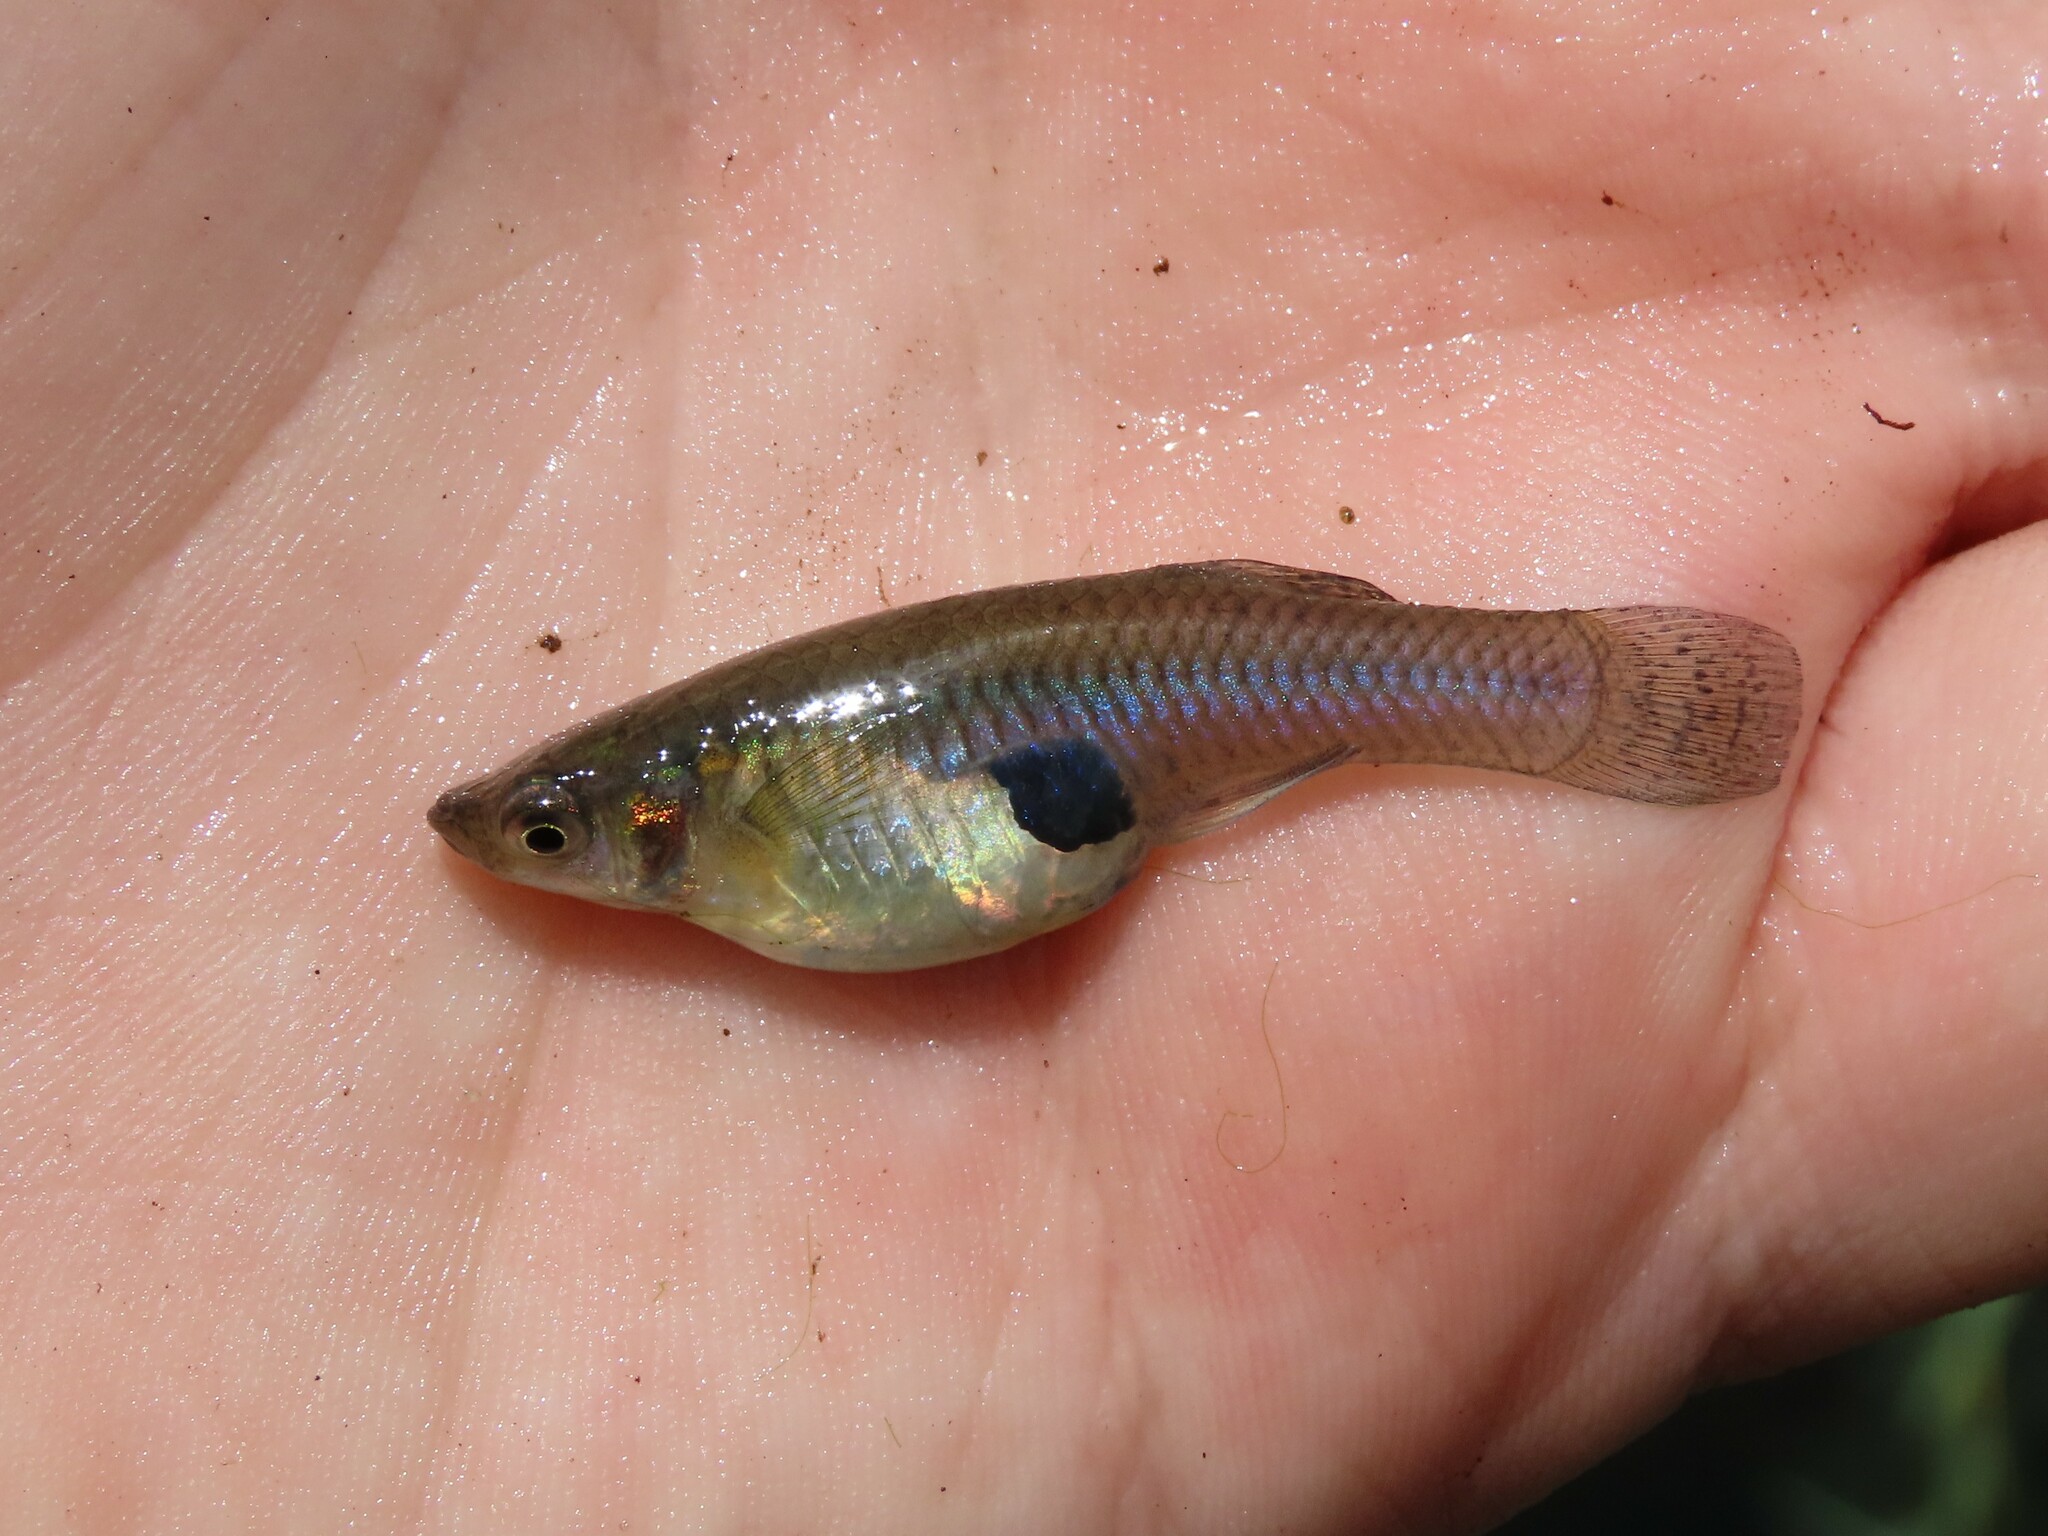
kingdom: Animalia
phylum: Chordata
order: Cyprinodontiformes
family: Poeciliidae
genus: Gambusia
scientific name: Gambusia holbrooki
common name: Eastern mosquitofish
